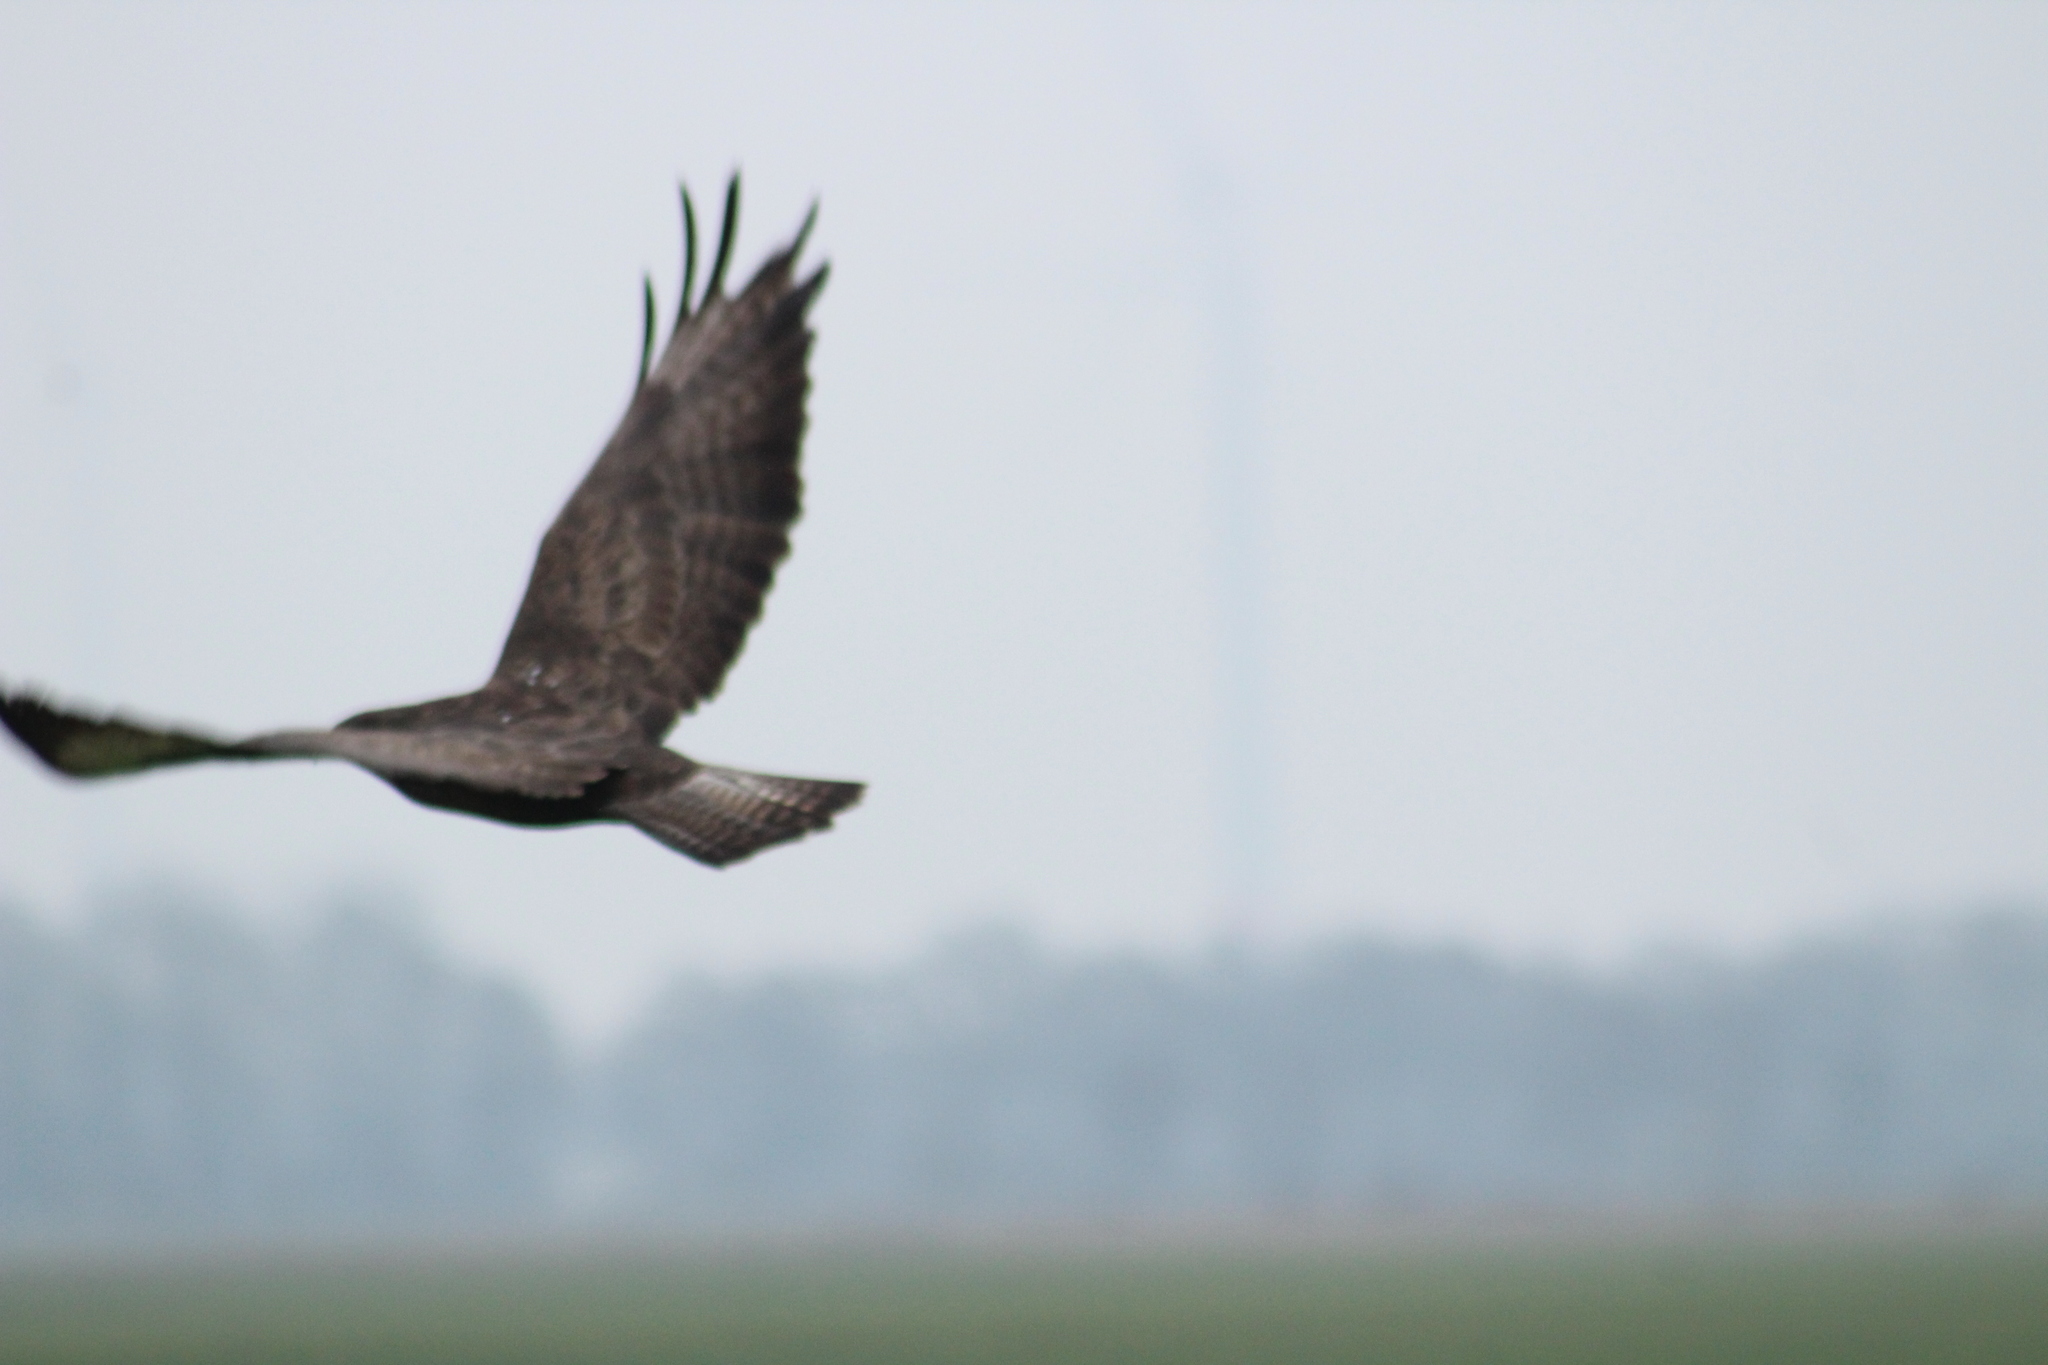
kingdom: Animalia
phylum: Chordata
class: Aves
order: Accipitriformes
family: Accipitridae
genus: Buteo
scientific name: Buteo buteo
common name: Common buzzard
